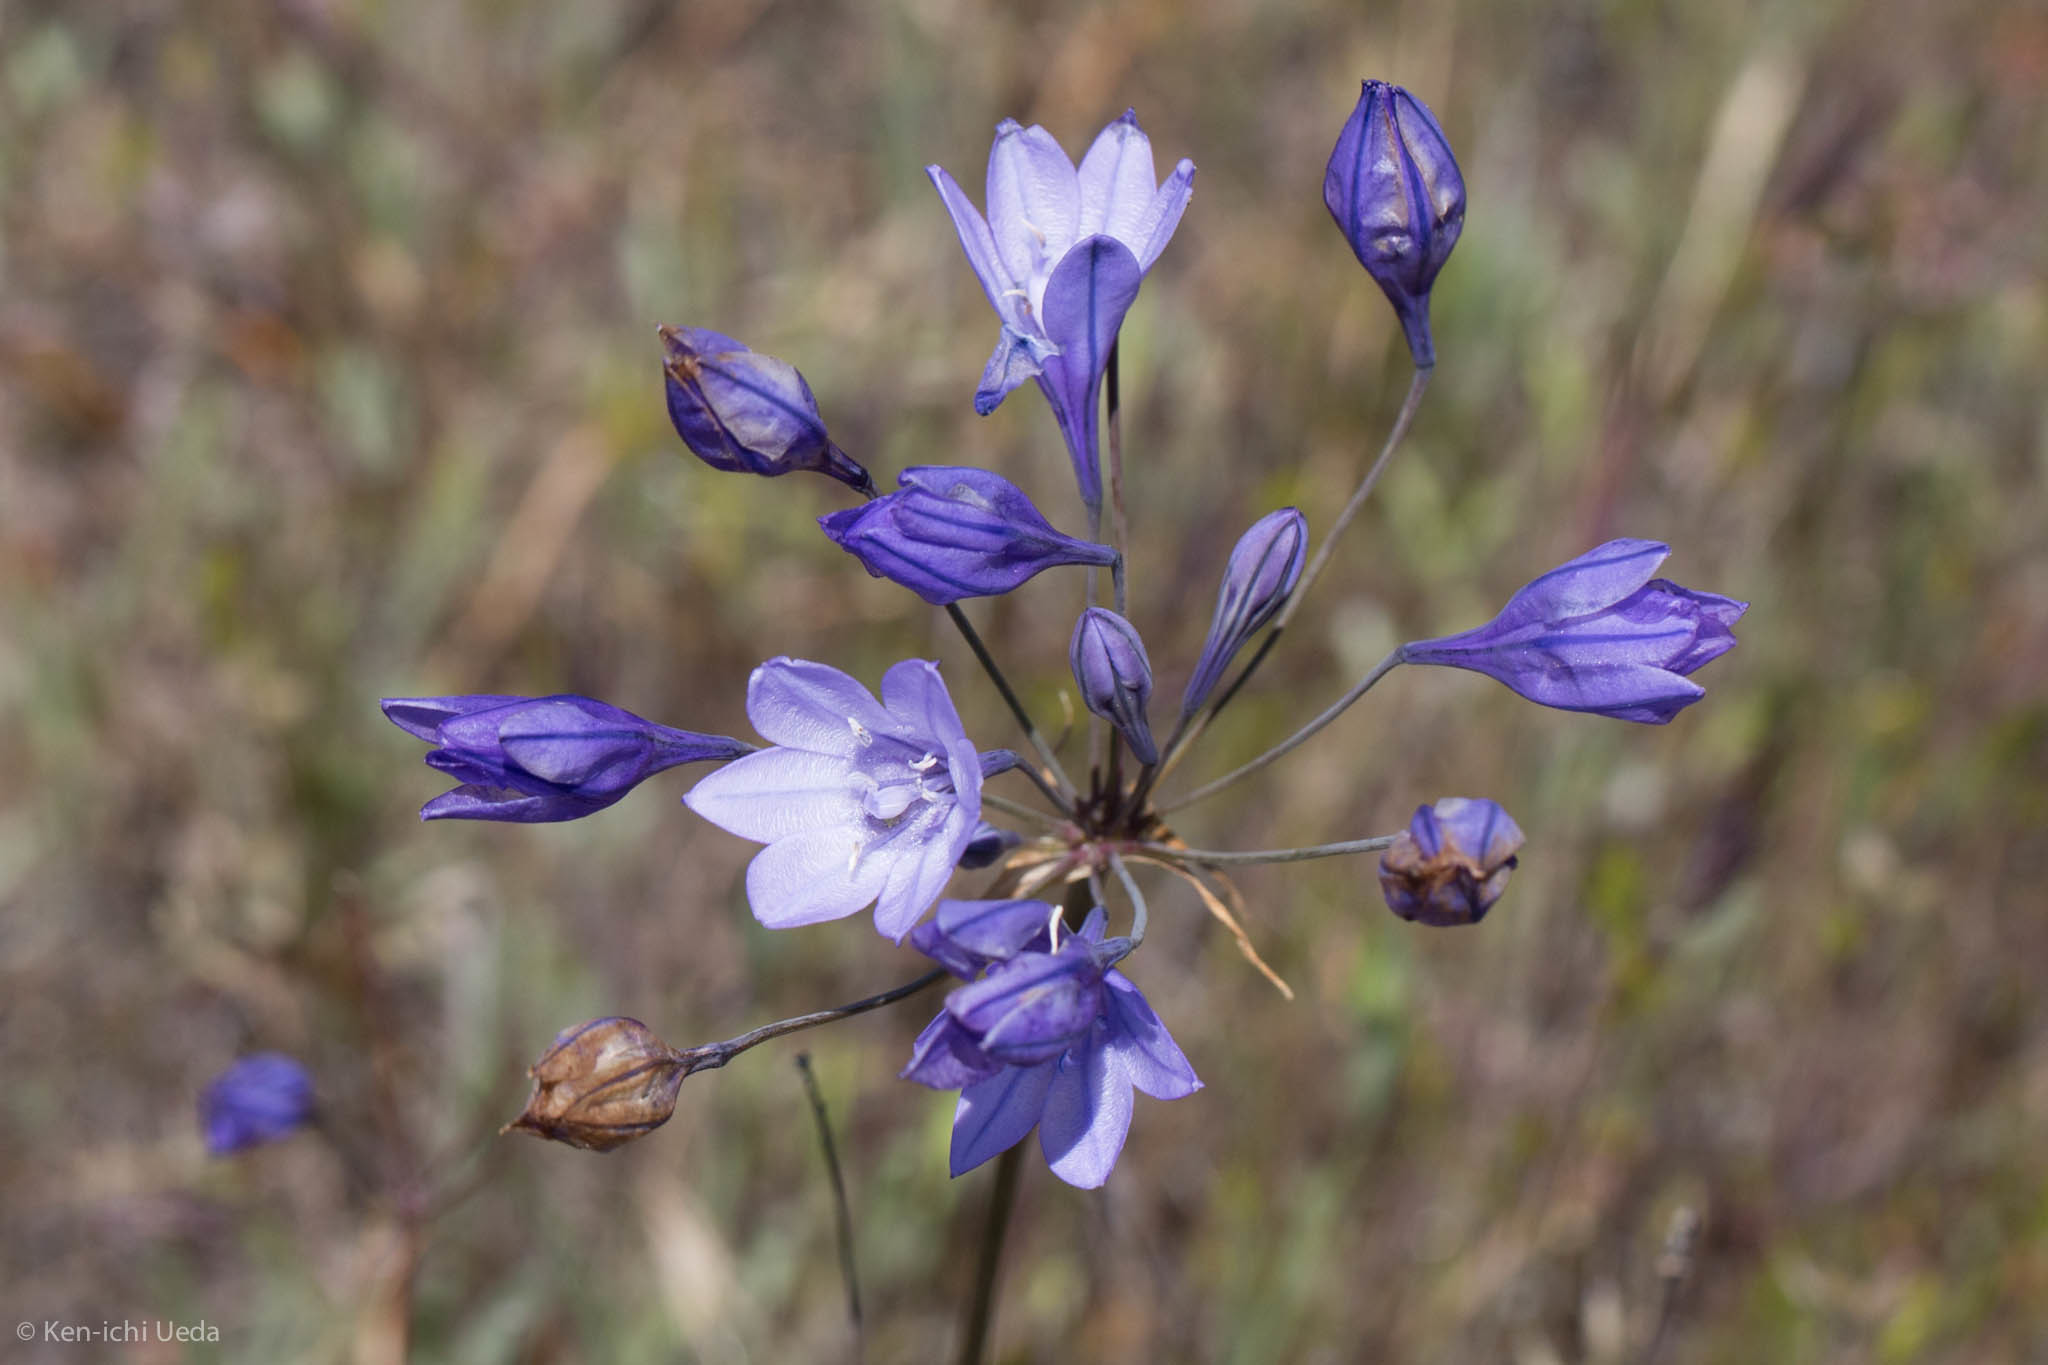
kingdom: Plantae
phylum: Tracheophyta
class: Liliopsida
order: Asparagales
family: Asparagaceae
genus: Triteleia
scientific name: Triteleia laxa
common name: Triplet-lily
